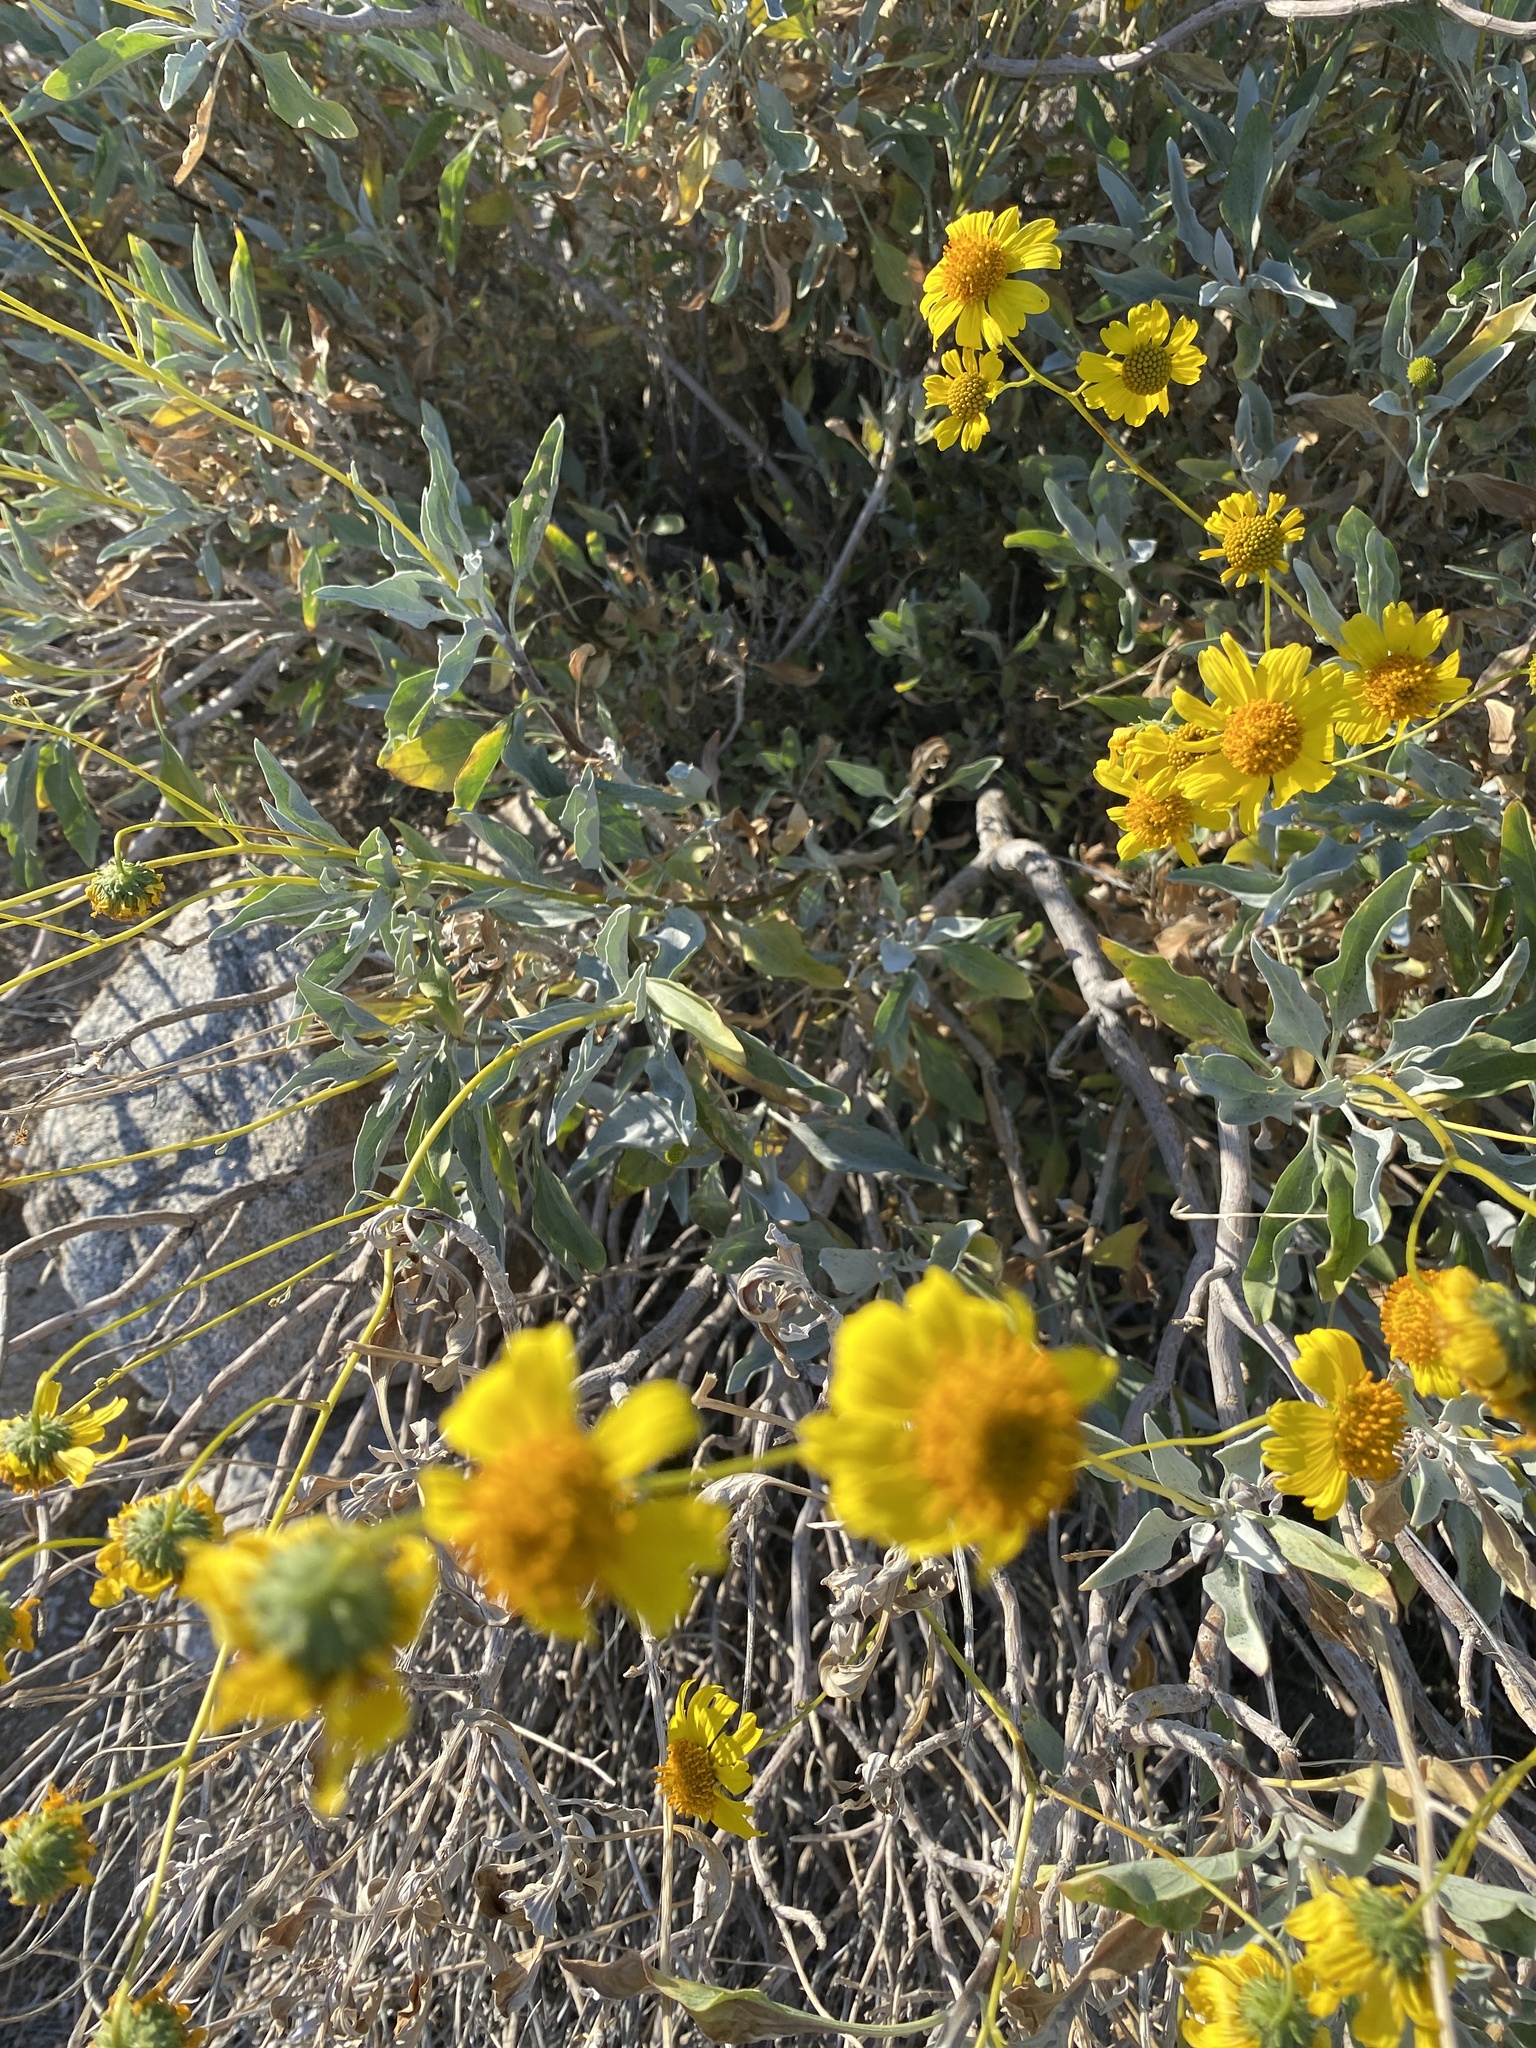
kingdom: Plantae
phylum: Tracheophyta
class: Magnoliopsida
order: Asterales
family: Asteraceae
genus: Encelia
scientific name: Encelia farinosa
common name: Brittlebush
